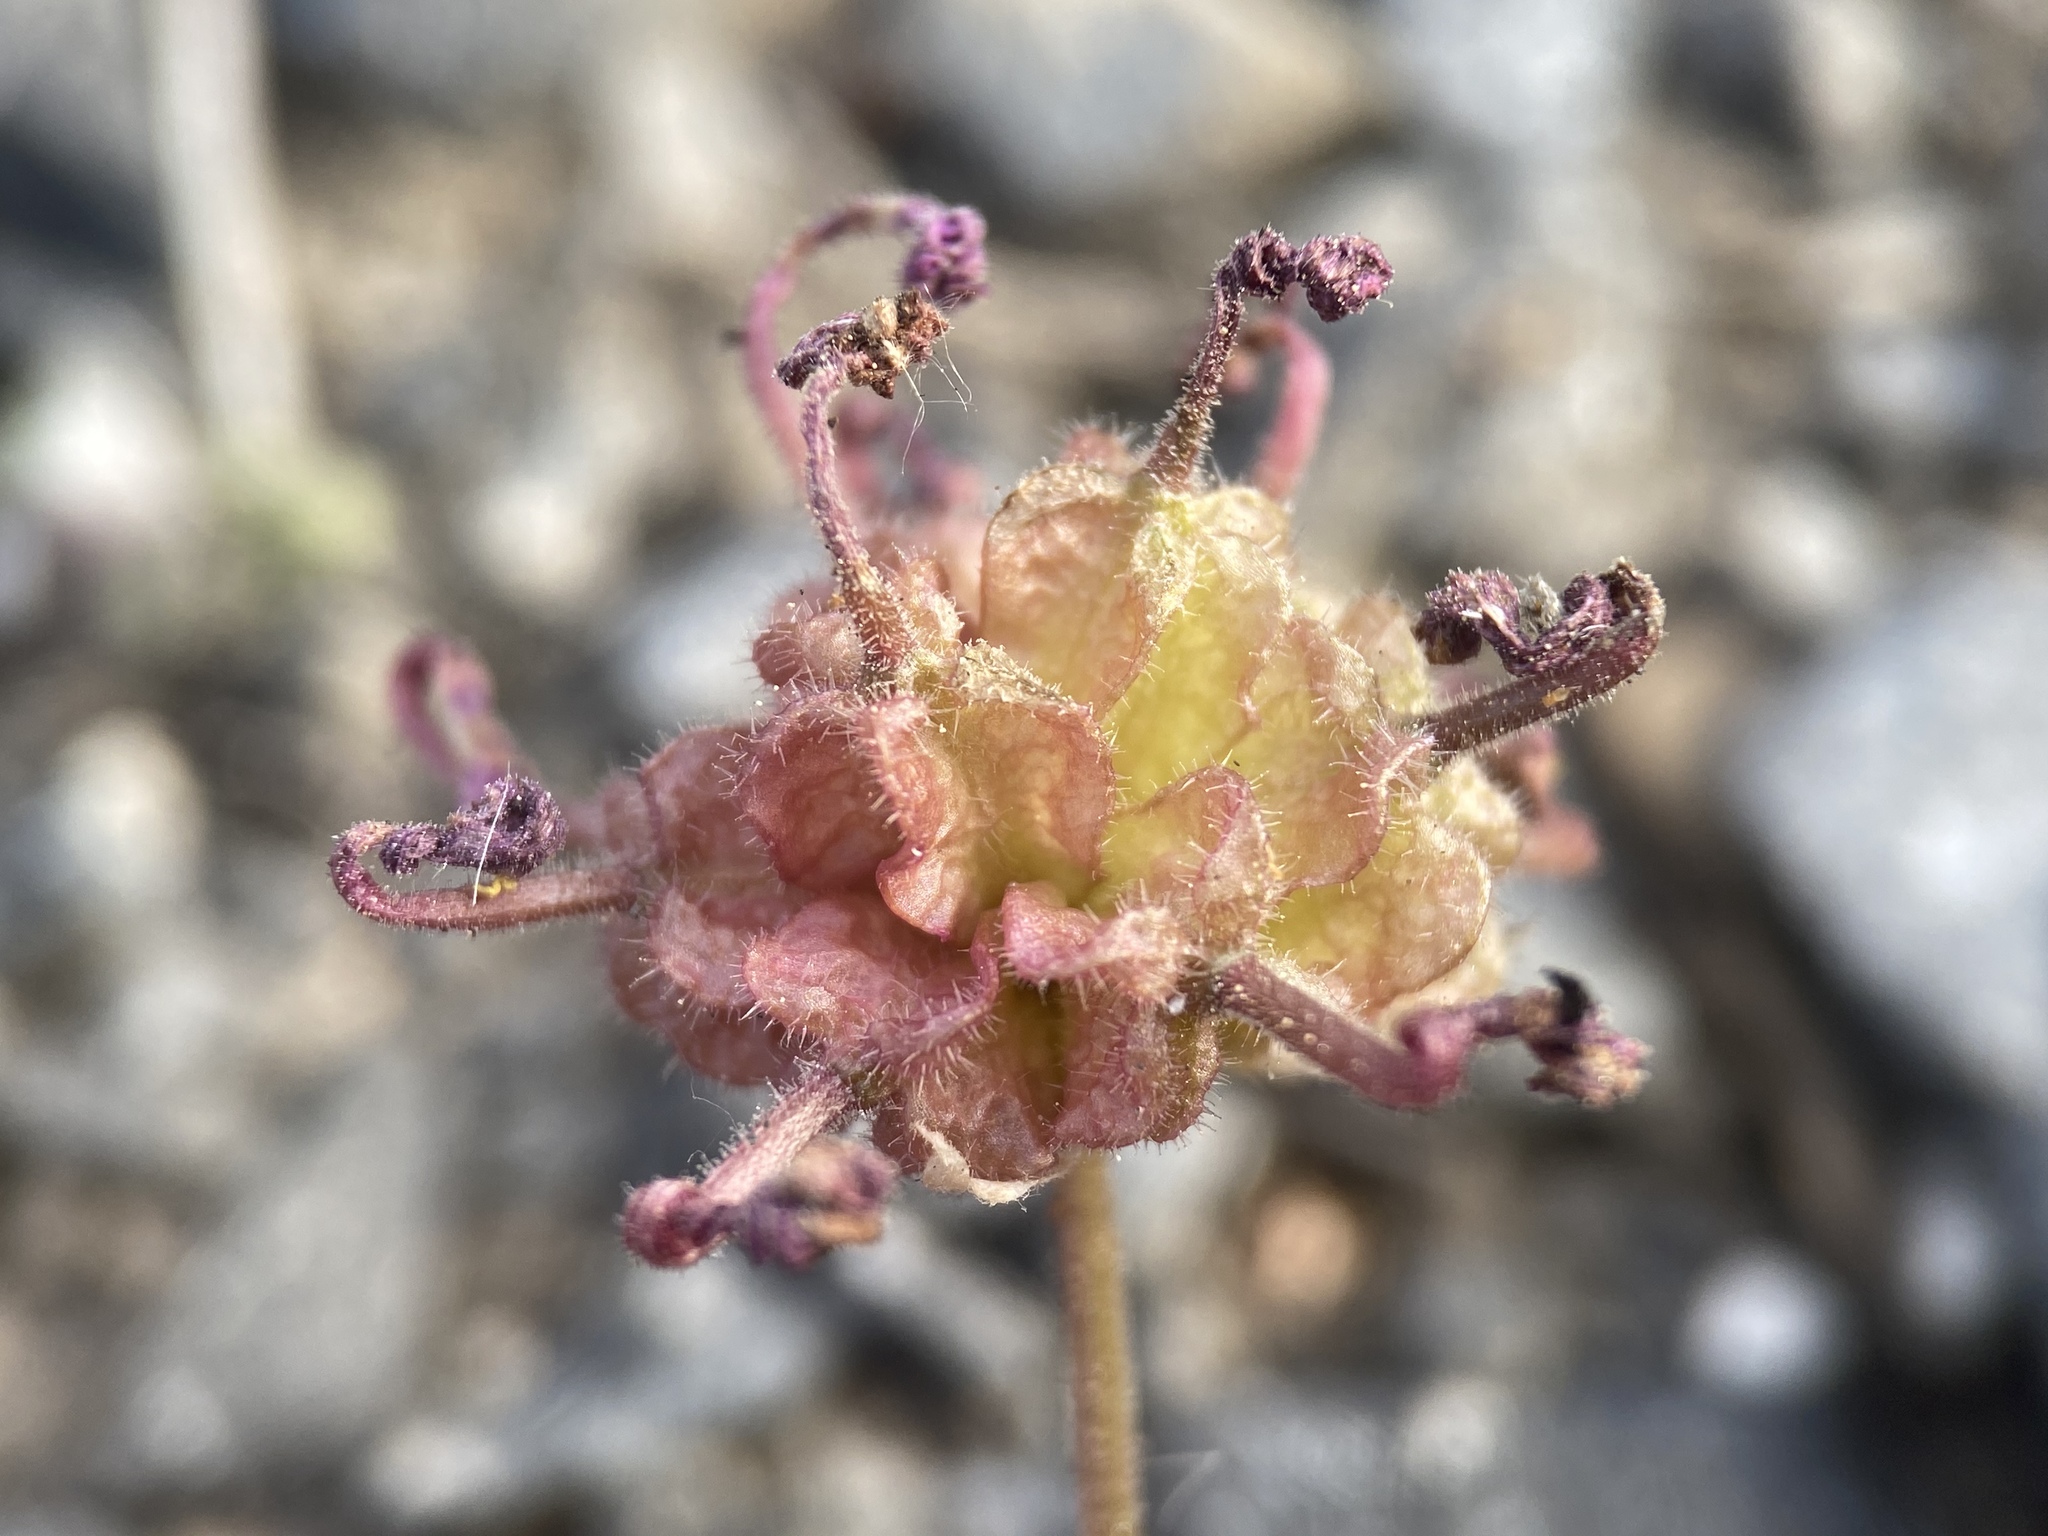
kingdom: Plantae
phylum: Tracheophyta
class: Magnoliopsida
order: Caryophyllales
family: Nyctaginaceae
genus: Abronia
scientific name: Abronia nana
